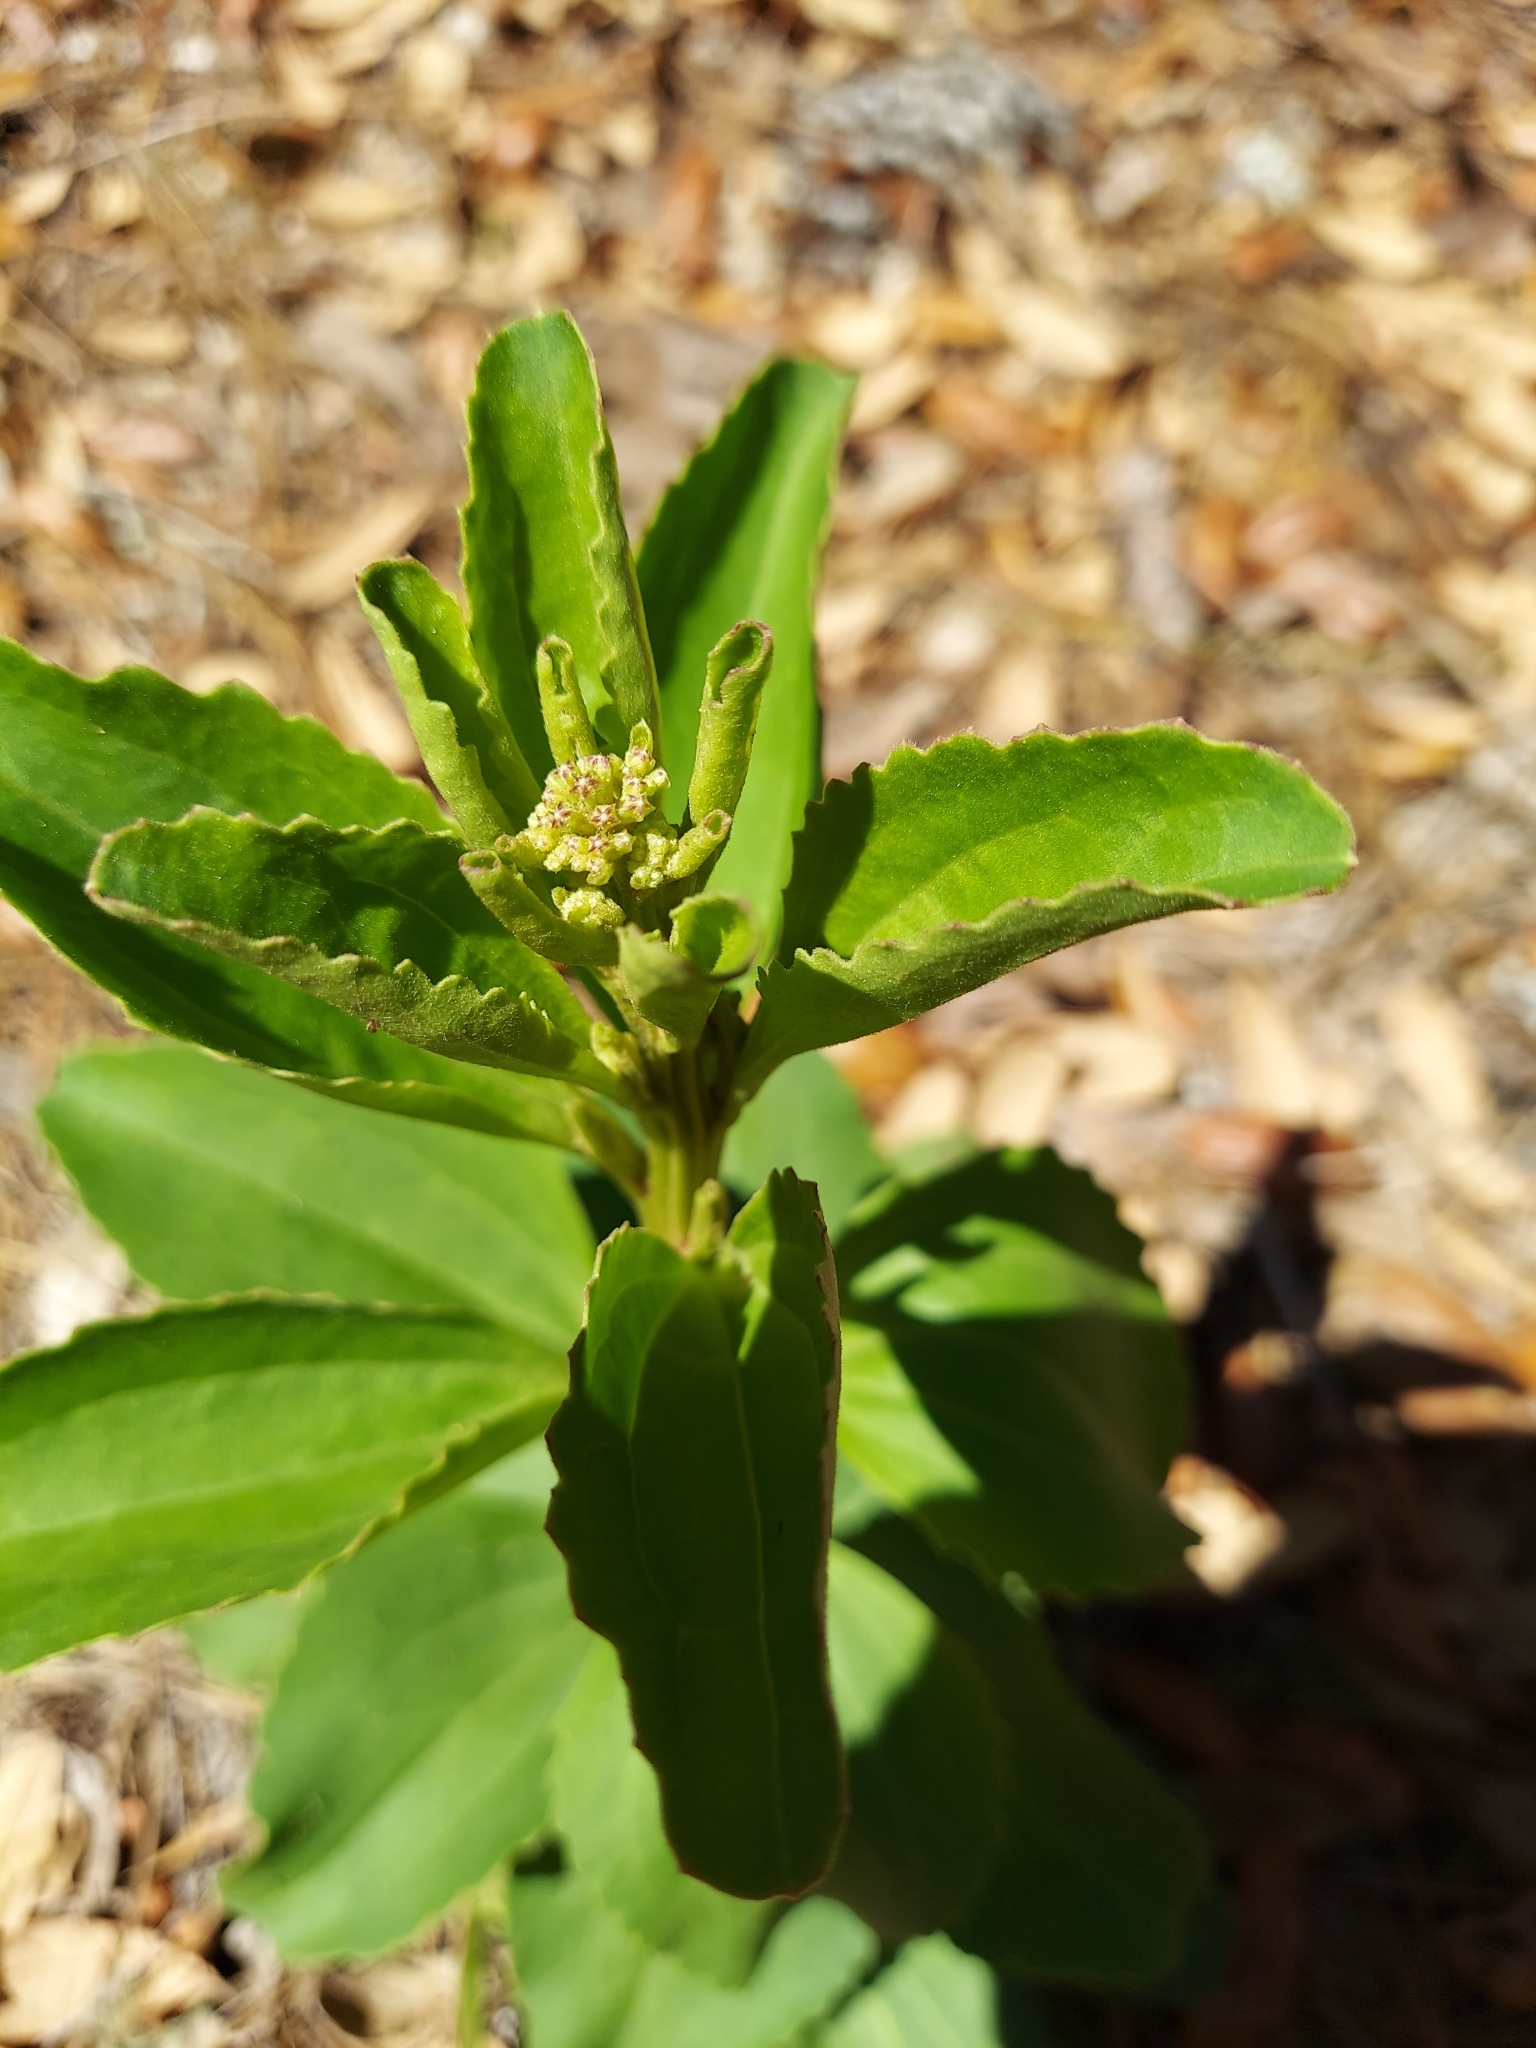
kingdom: Plantae
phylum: Tracheophyta
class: Magnoliopsida
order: Asterales
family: Asteraceae
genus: Arnoglossum
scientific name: Arnoglossum floridanum
